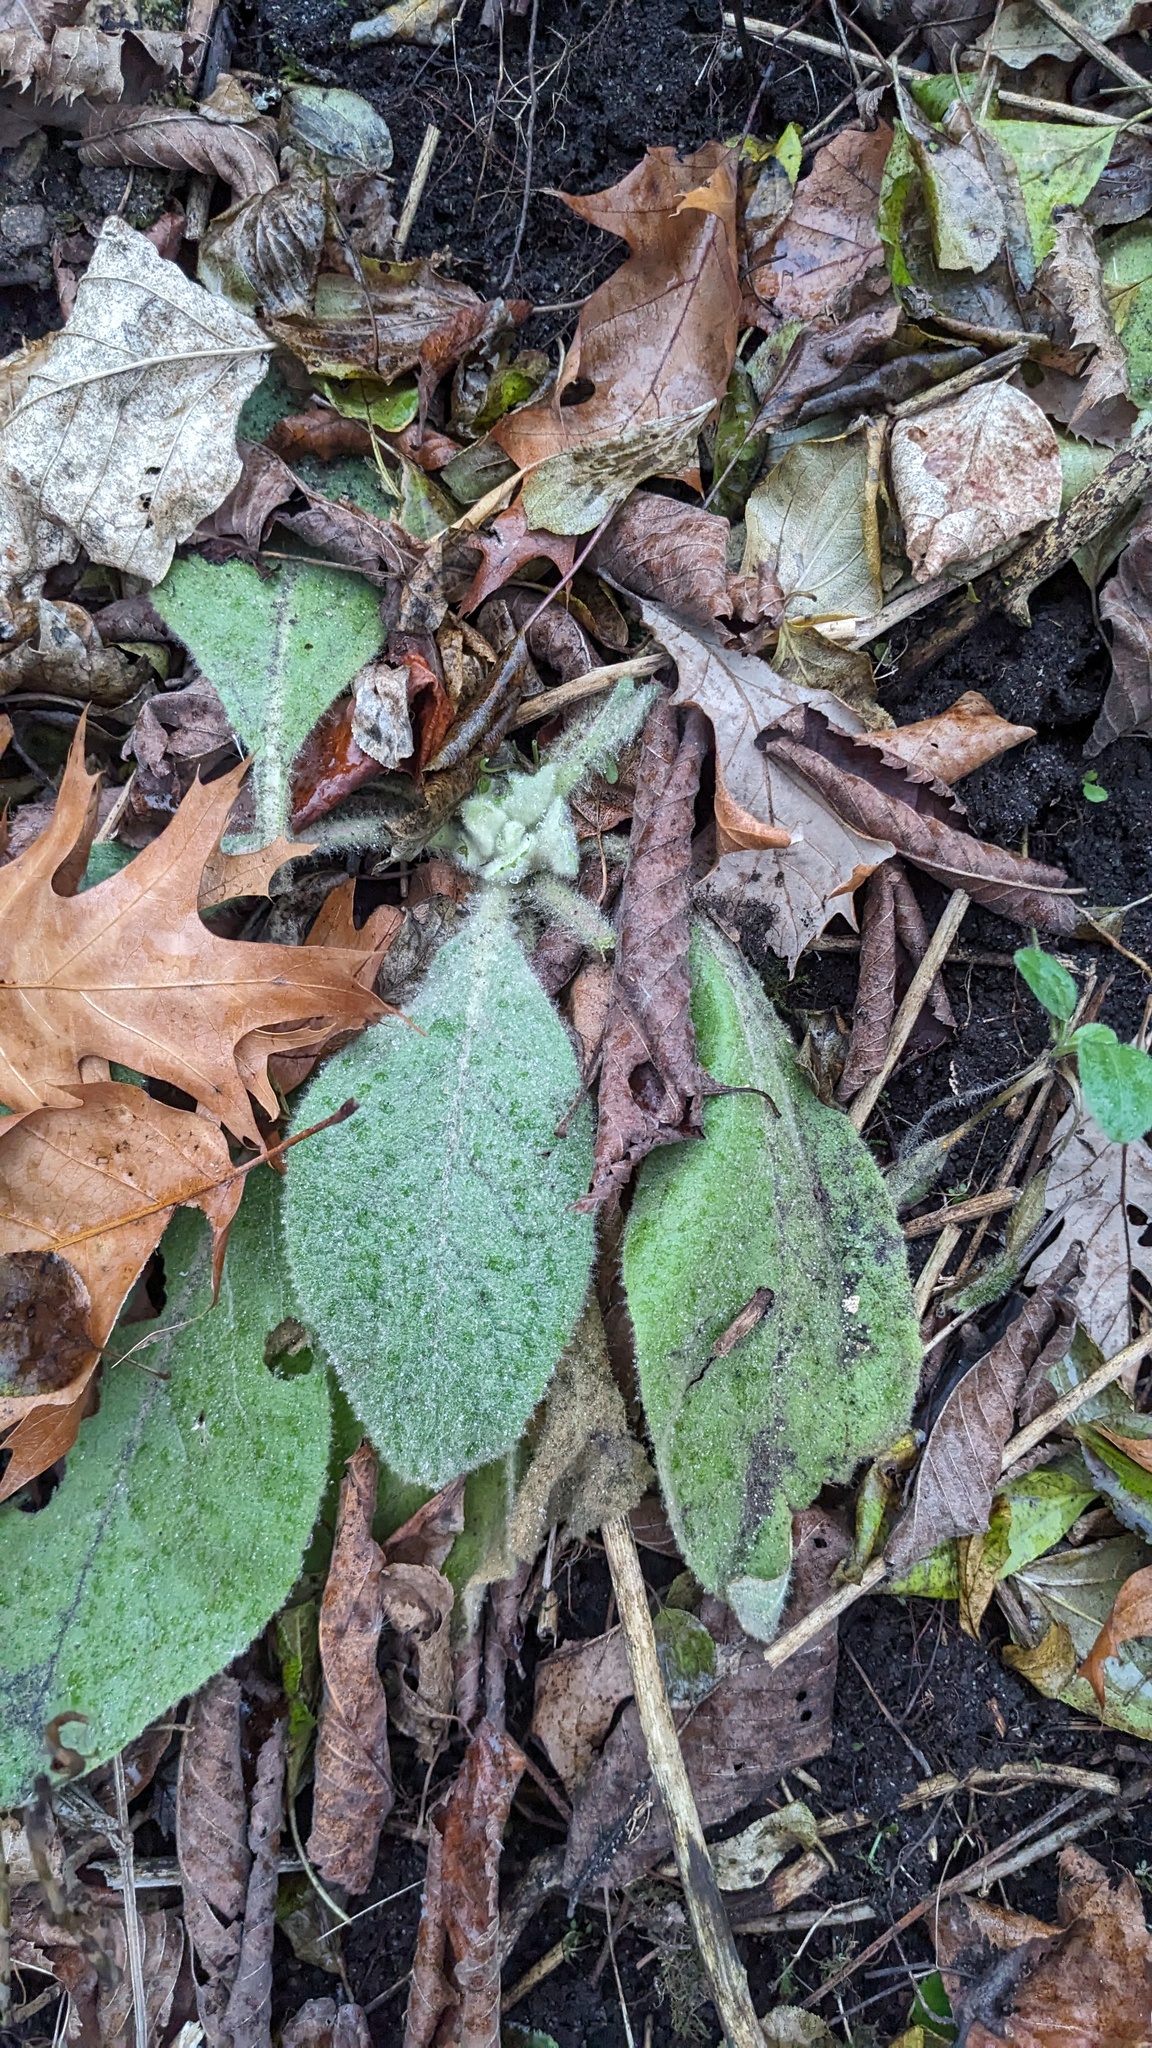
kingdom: Plantae
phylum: Tracheophyta
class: Magnoliopsida
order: Lamiales
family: Scrophulariaceae
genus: Verbascum
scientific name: Verbascum thapsus
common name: Common mullein
